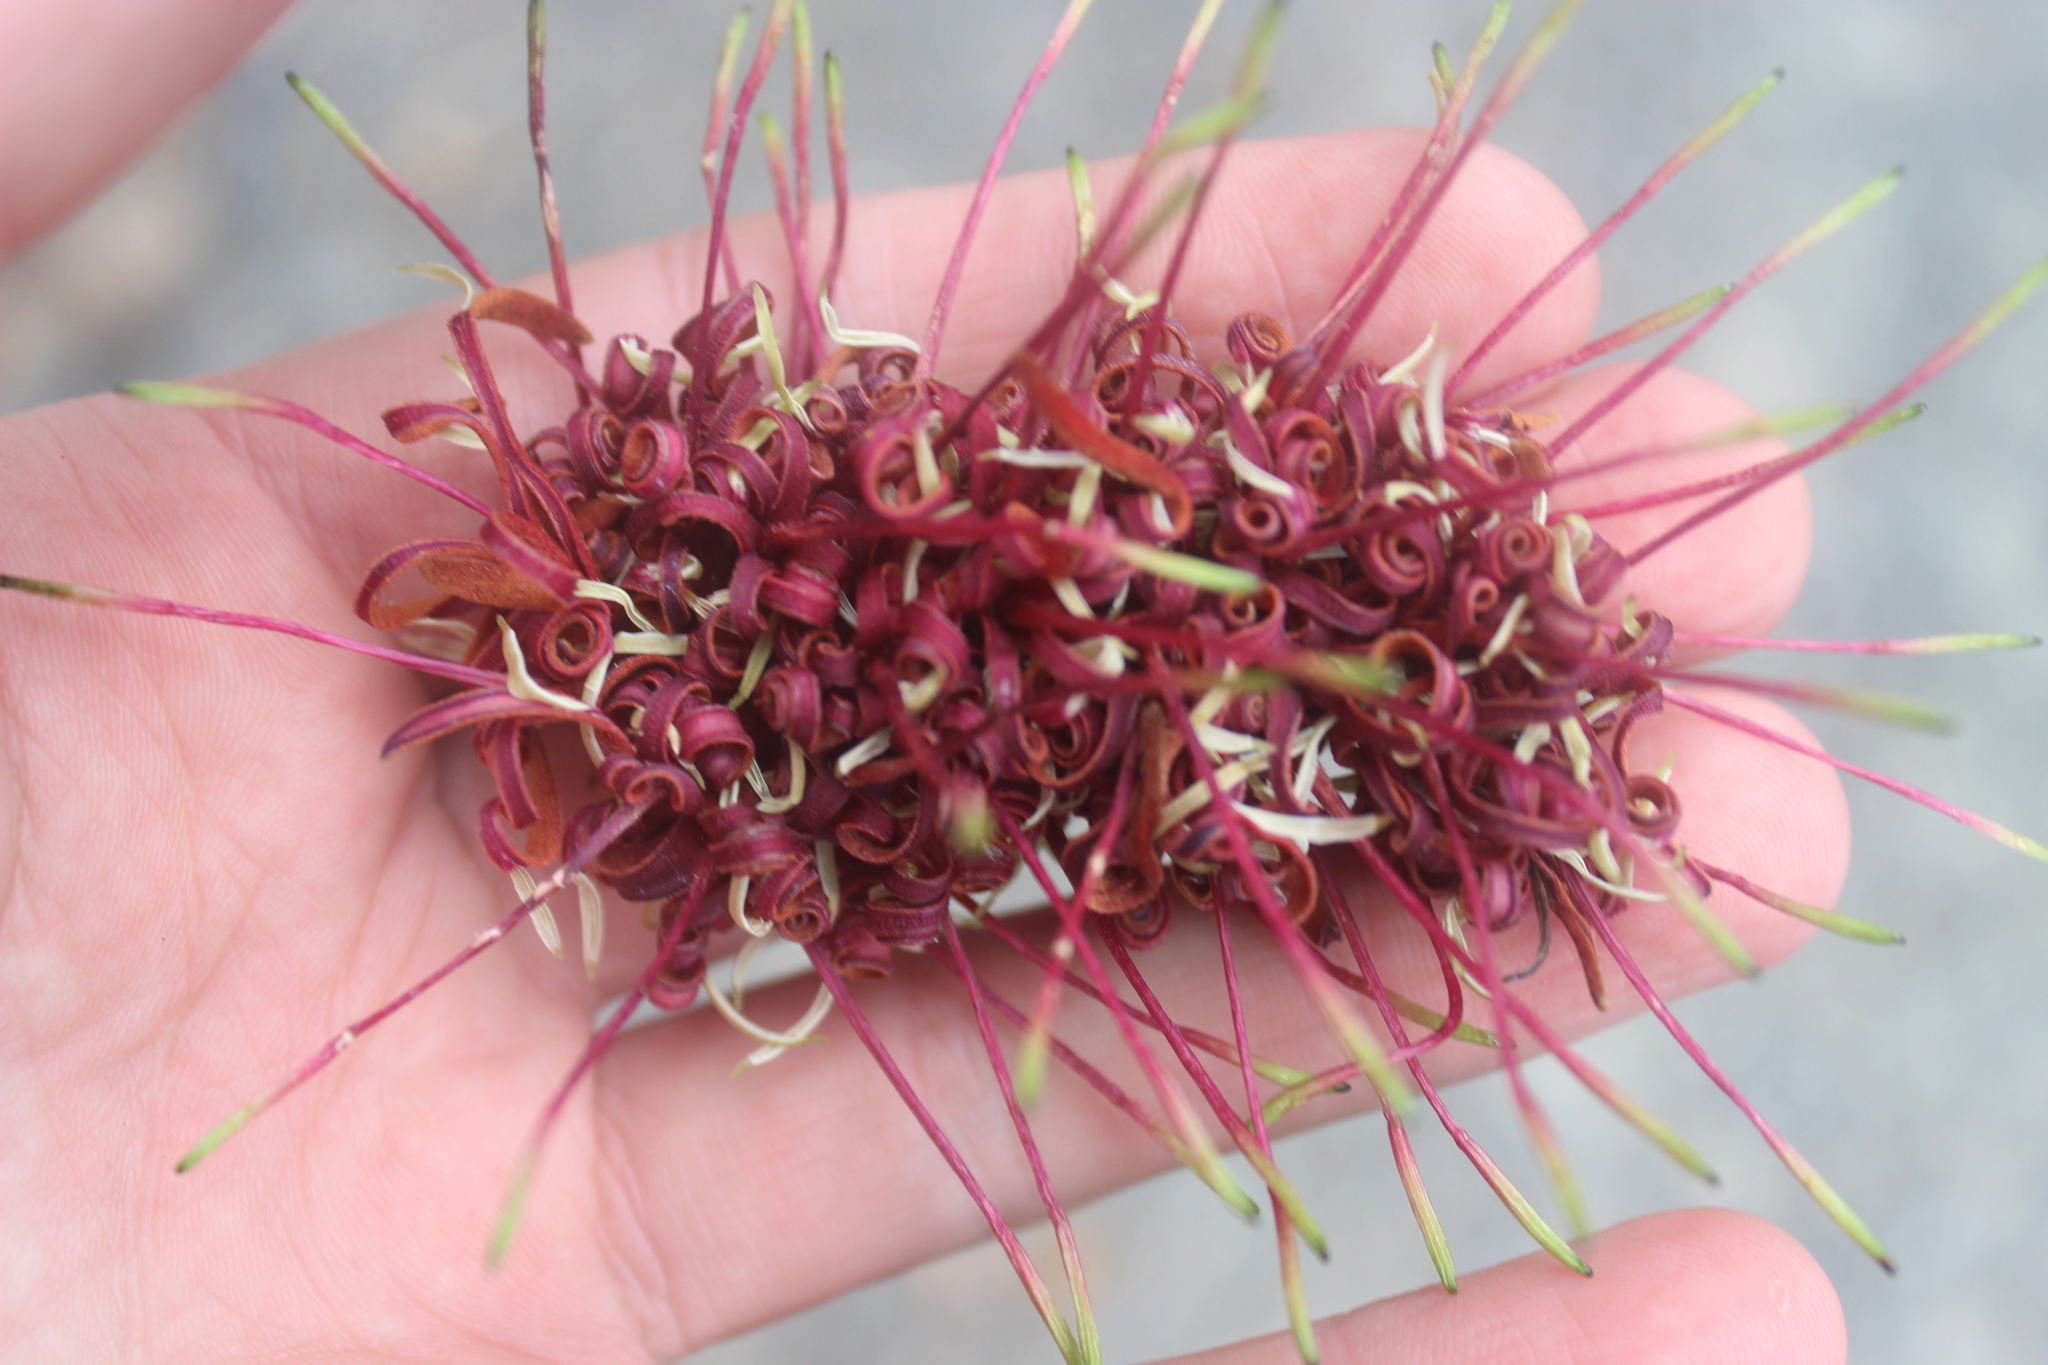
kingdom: Plantae
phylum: Tracheophyta
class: Magnoliopsida
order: Proteales
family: Proteaceae
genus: Knightia
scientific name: Knightia excelsa
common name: New zealand-honeysuckle
